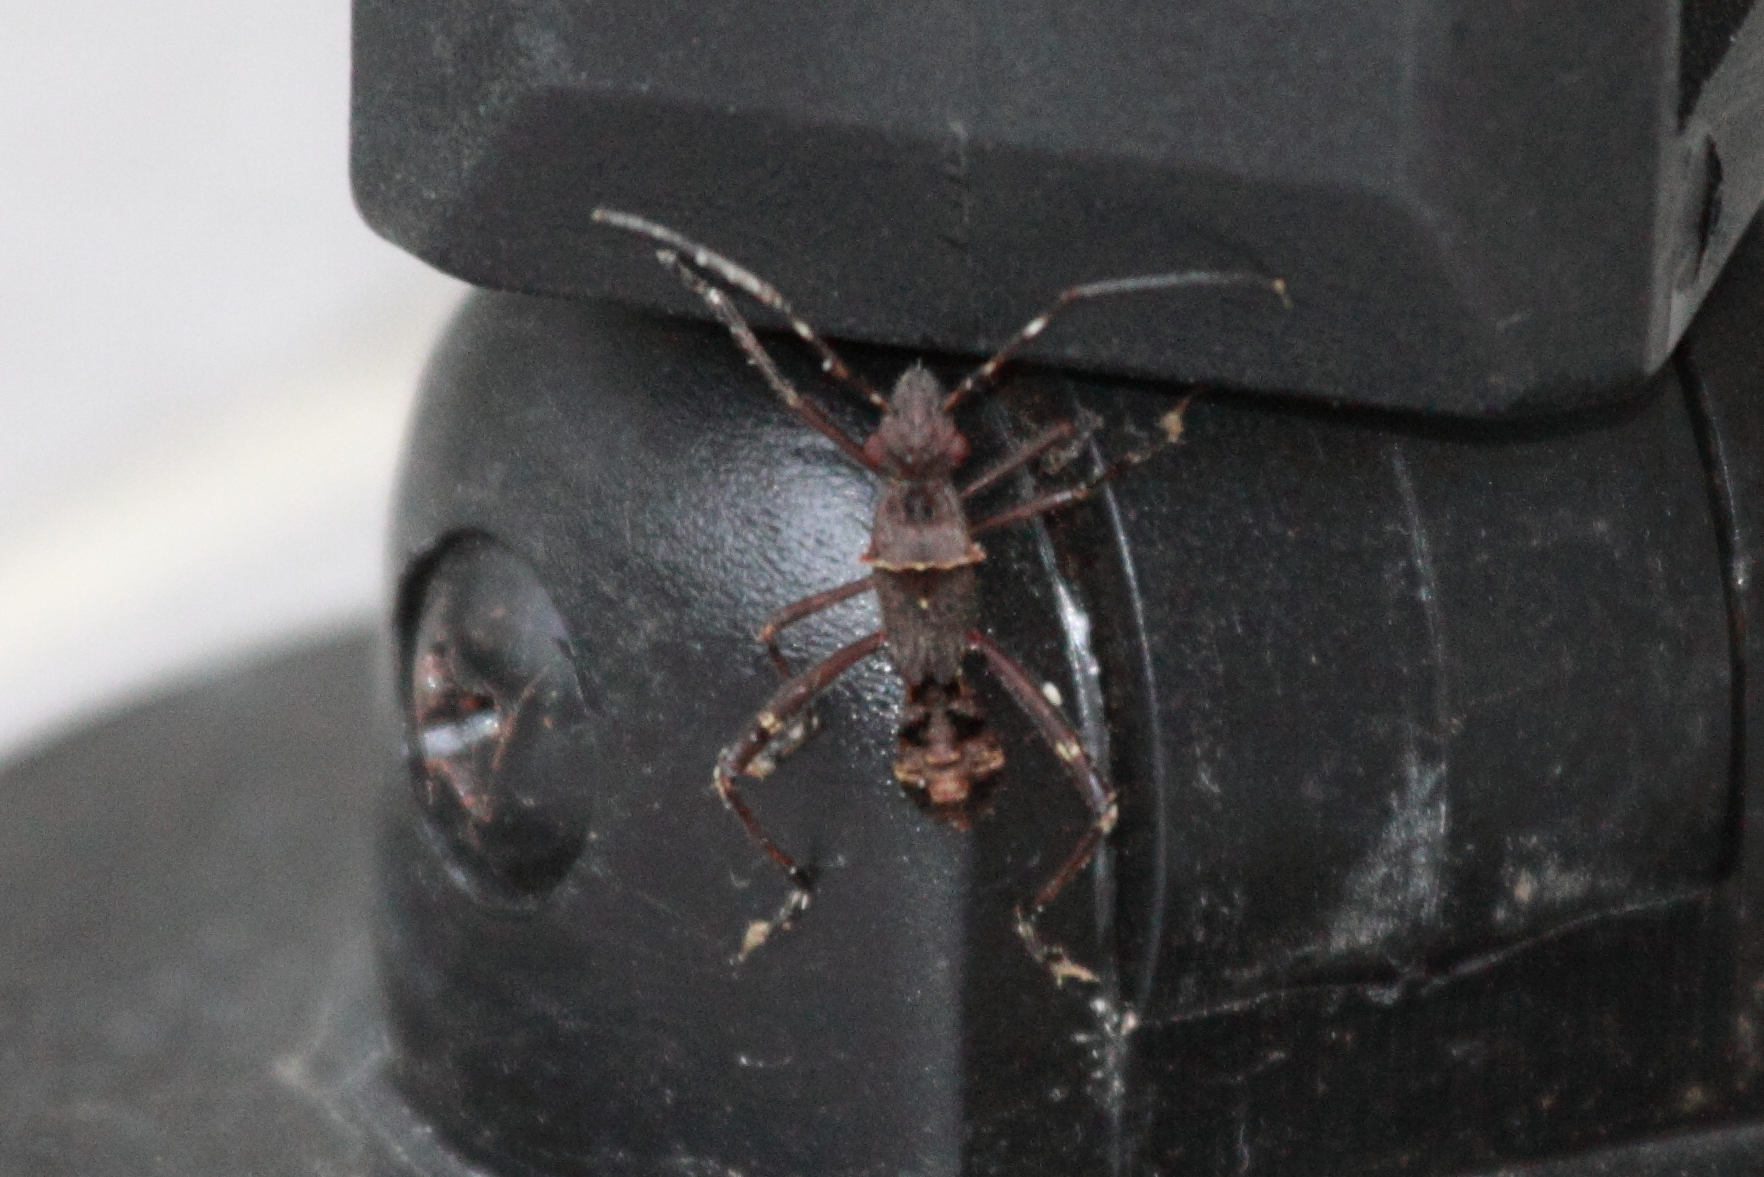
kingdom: Animalia
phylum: Arthropoda
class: Insecta
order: Hemiptera
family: Alydidae
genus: Riptortus
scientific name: Riptortus serripes
